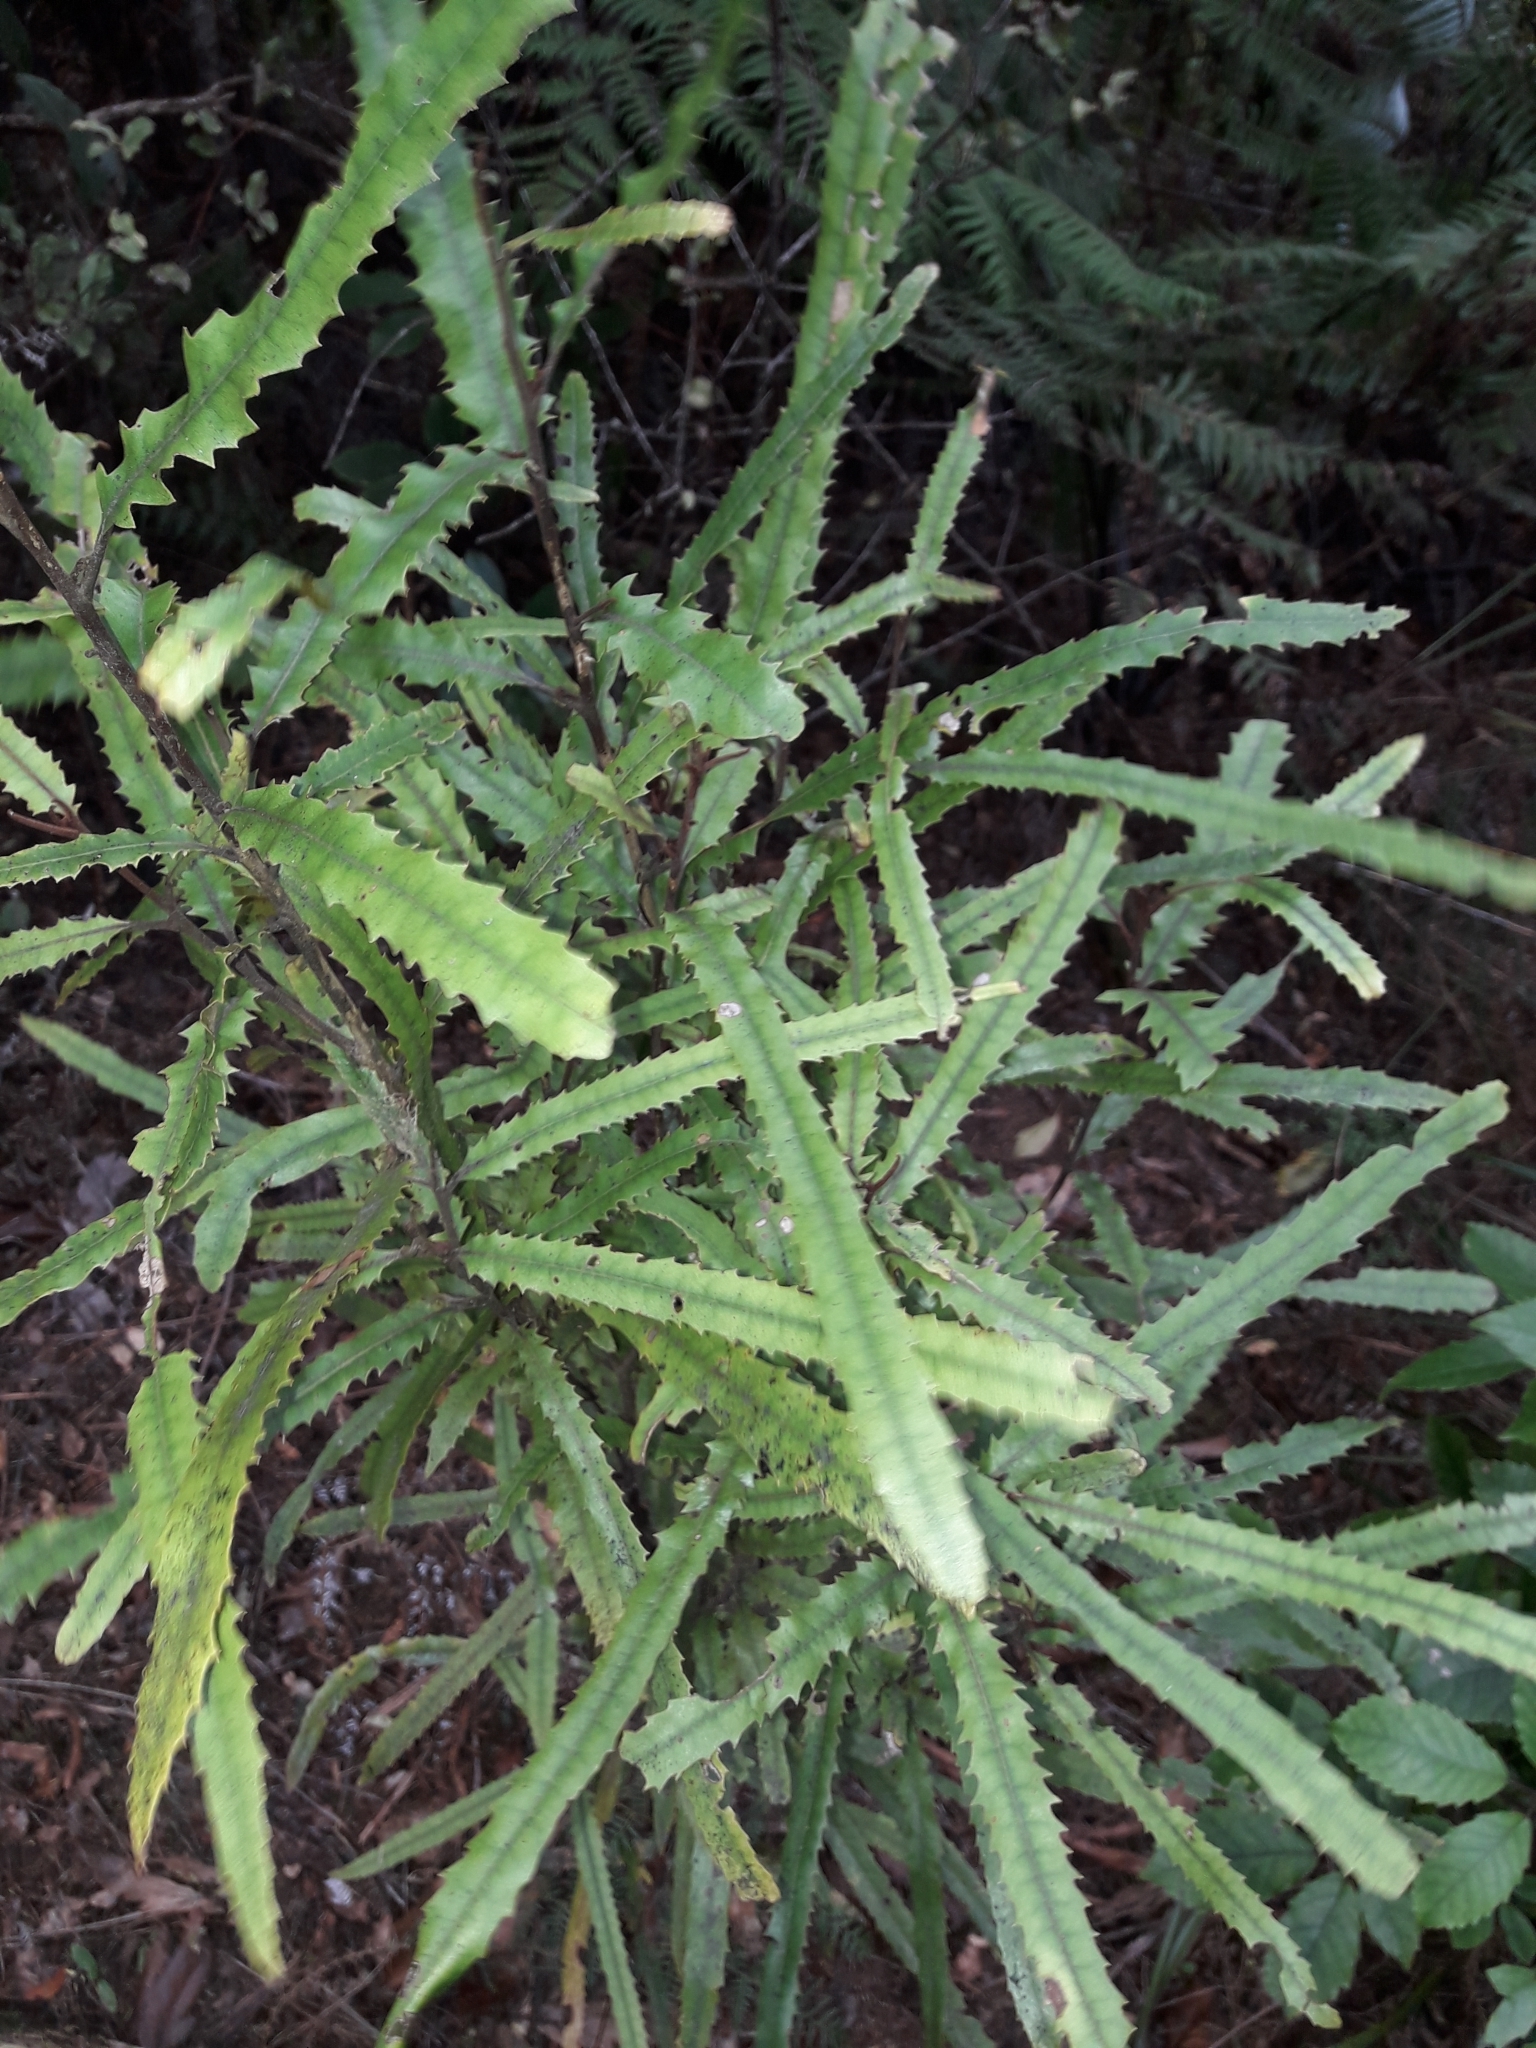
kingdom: Plantae
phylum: Tracheophyta
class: Magnoliopsida
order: Proteales
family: Proteaceae
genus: Knightia
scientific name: Knightia excelsa
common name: New zealand-honeysuckle
